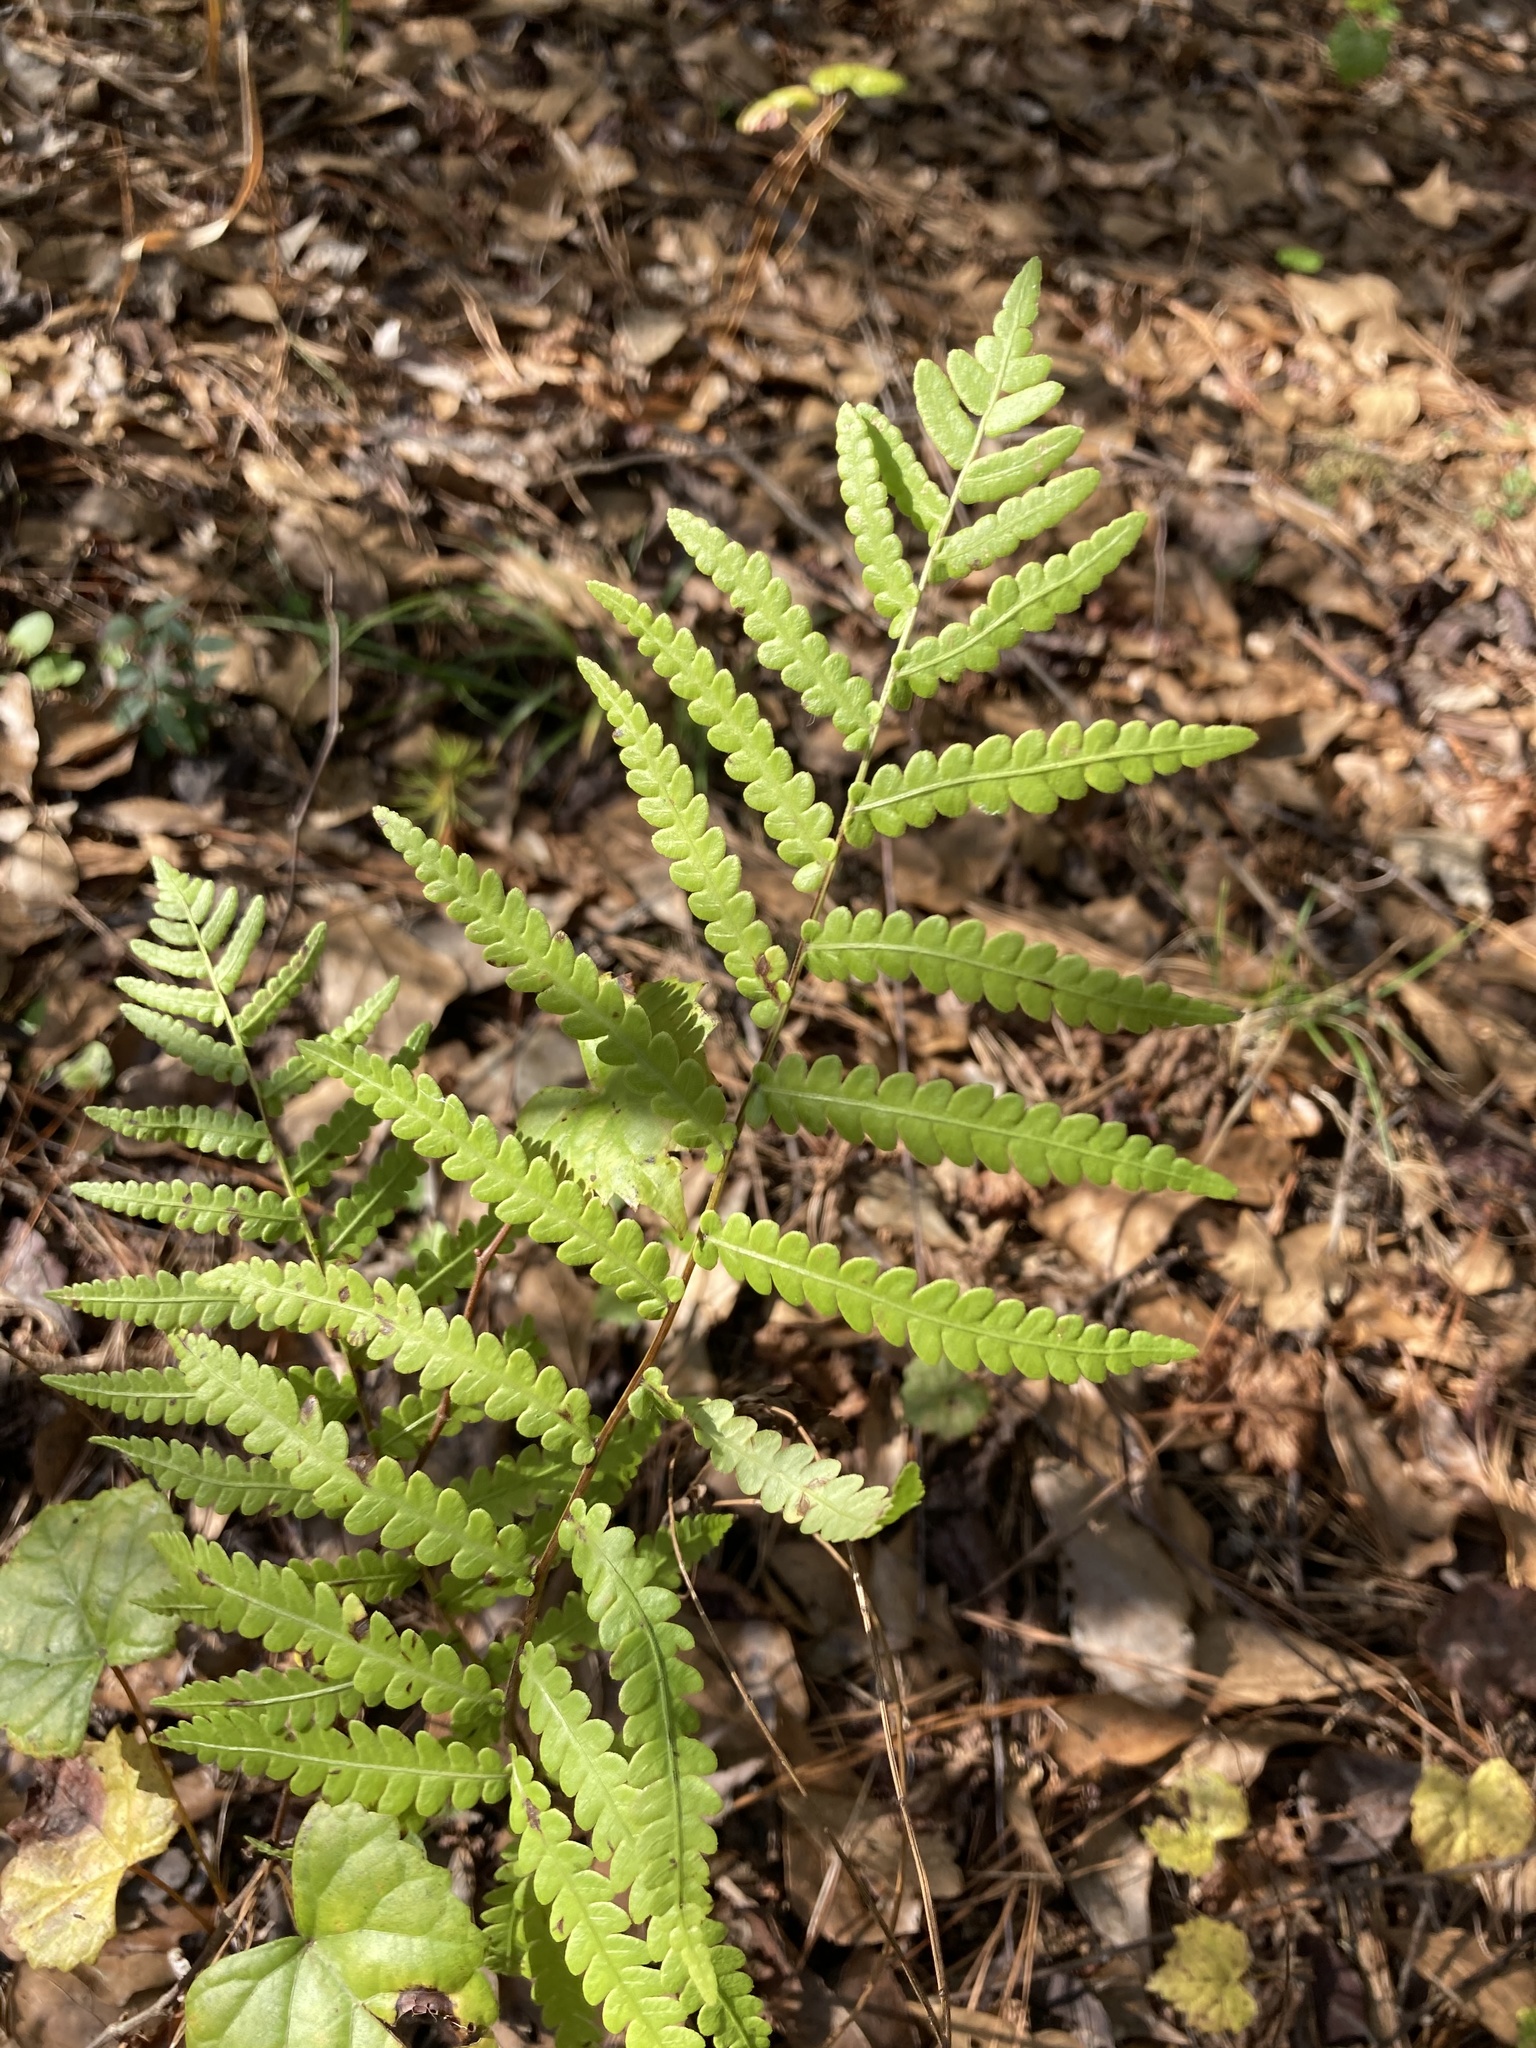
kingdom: Plantae
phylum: Tracheophyta
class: Polypodiopsida
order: Polypodiales
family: Blechnaceae
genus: Anchistea
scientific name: Anchistea virginica
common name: Virginia chain fern
